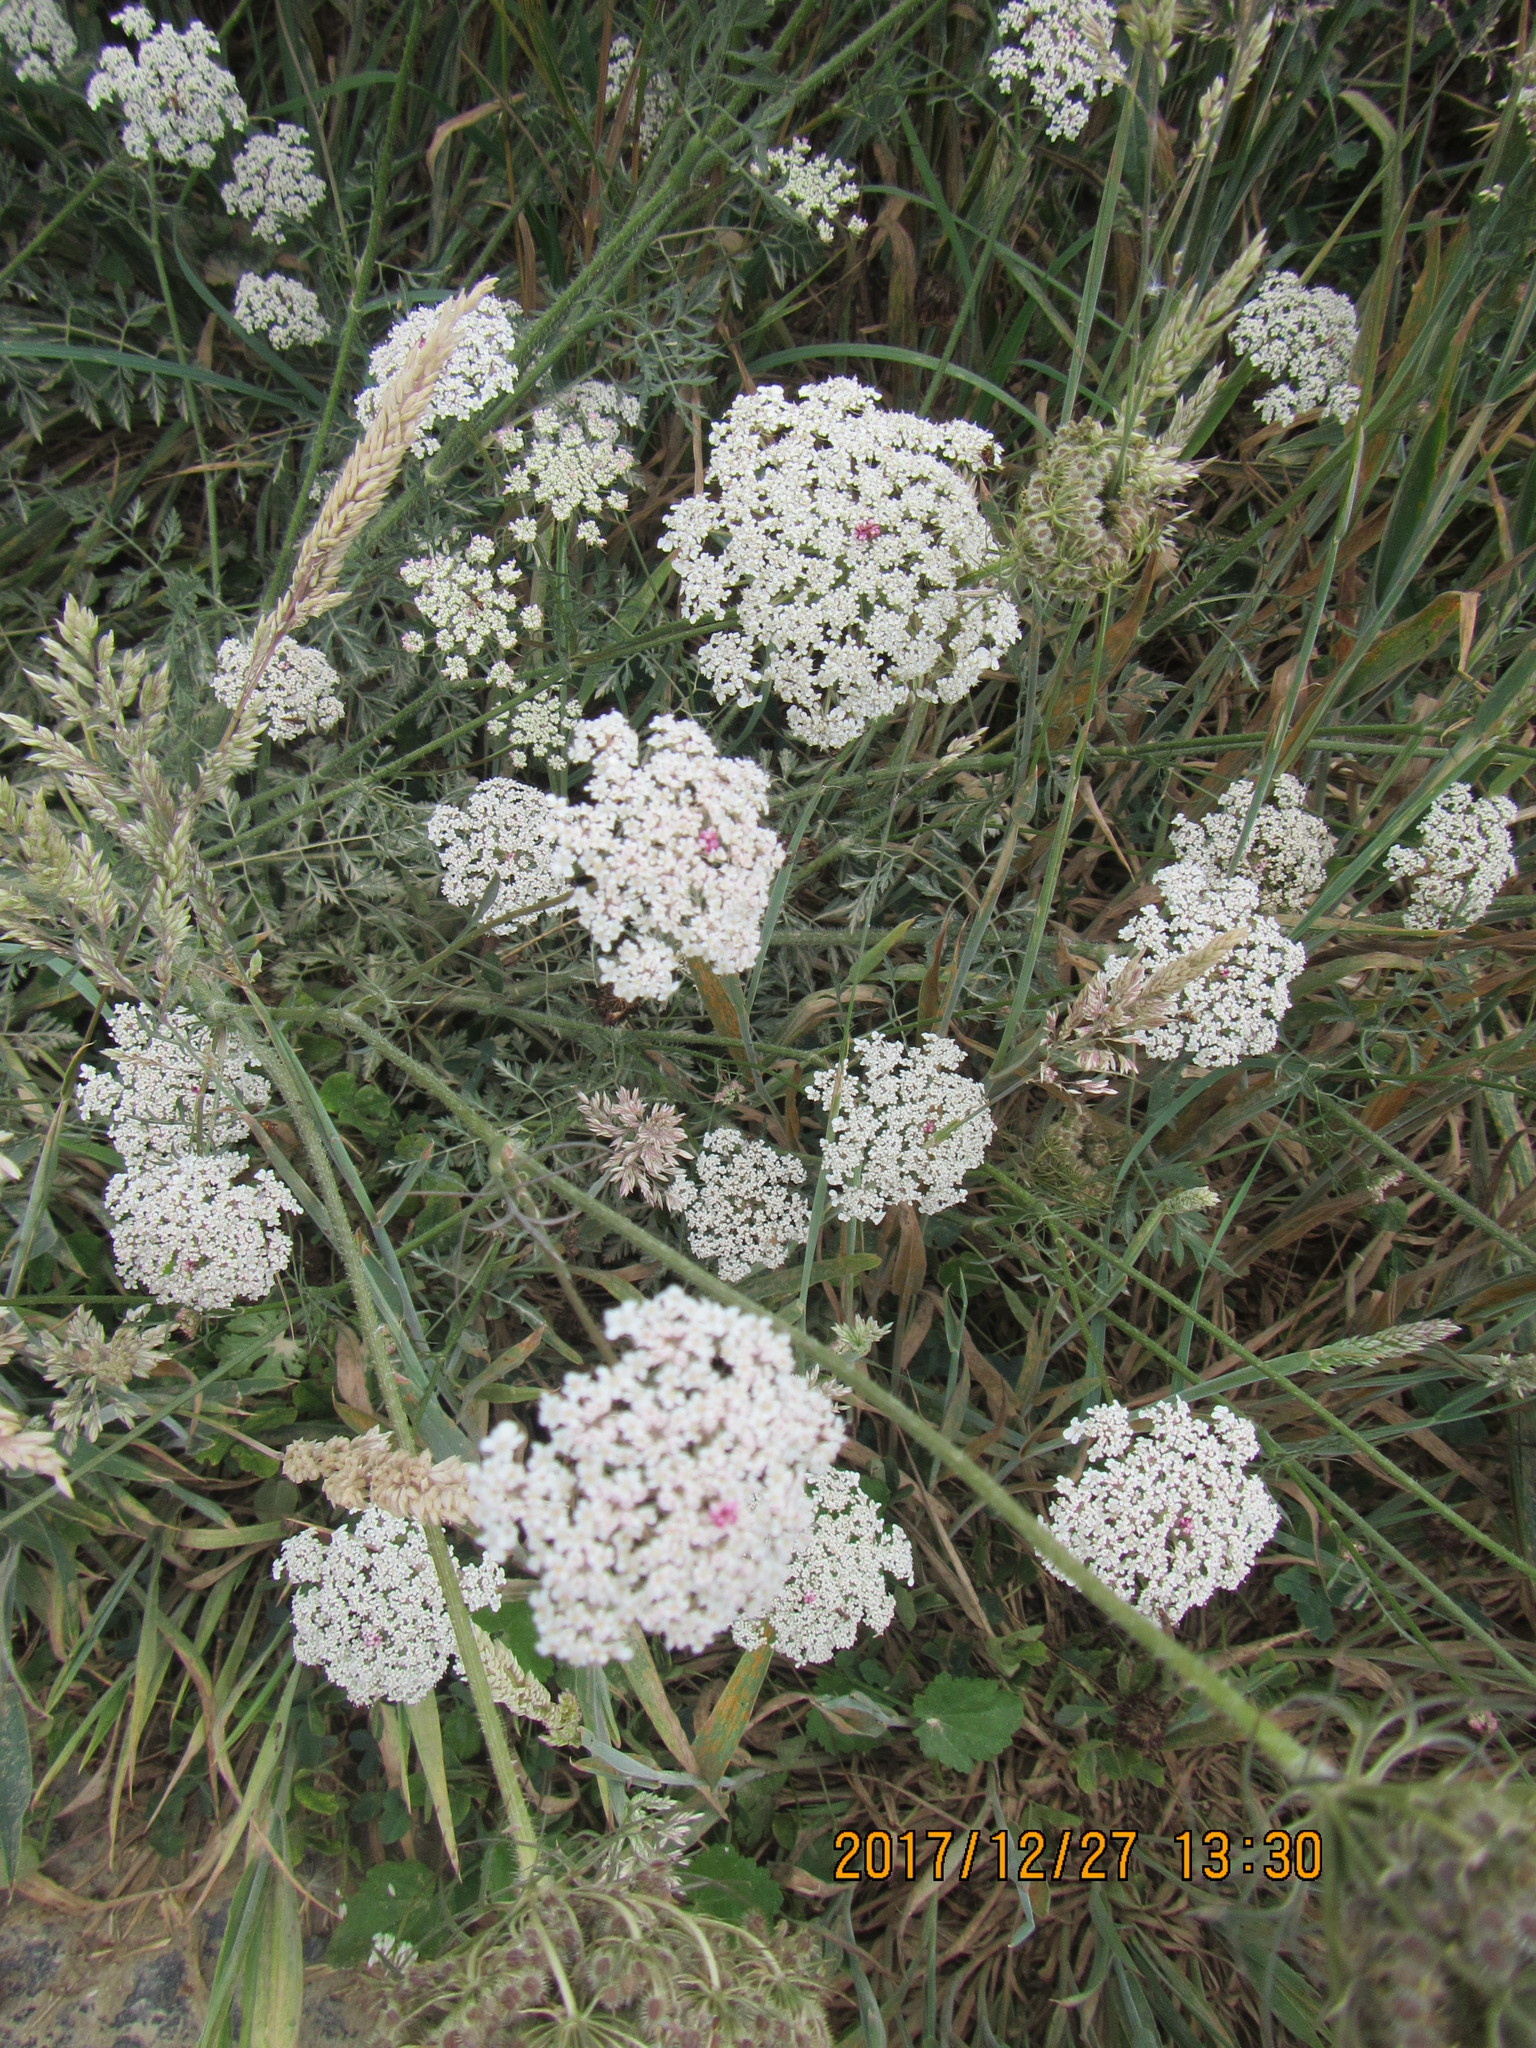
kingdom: Plantae
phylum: Tracheophyta
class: Magnoliopsida
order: Apiales
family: Apiaceae
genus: Daucus
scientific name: Daucus carota
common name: Wild carrot
